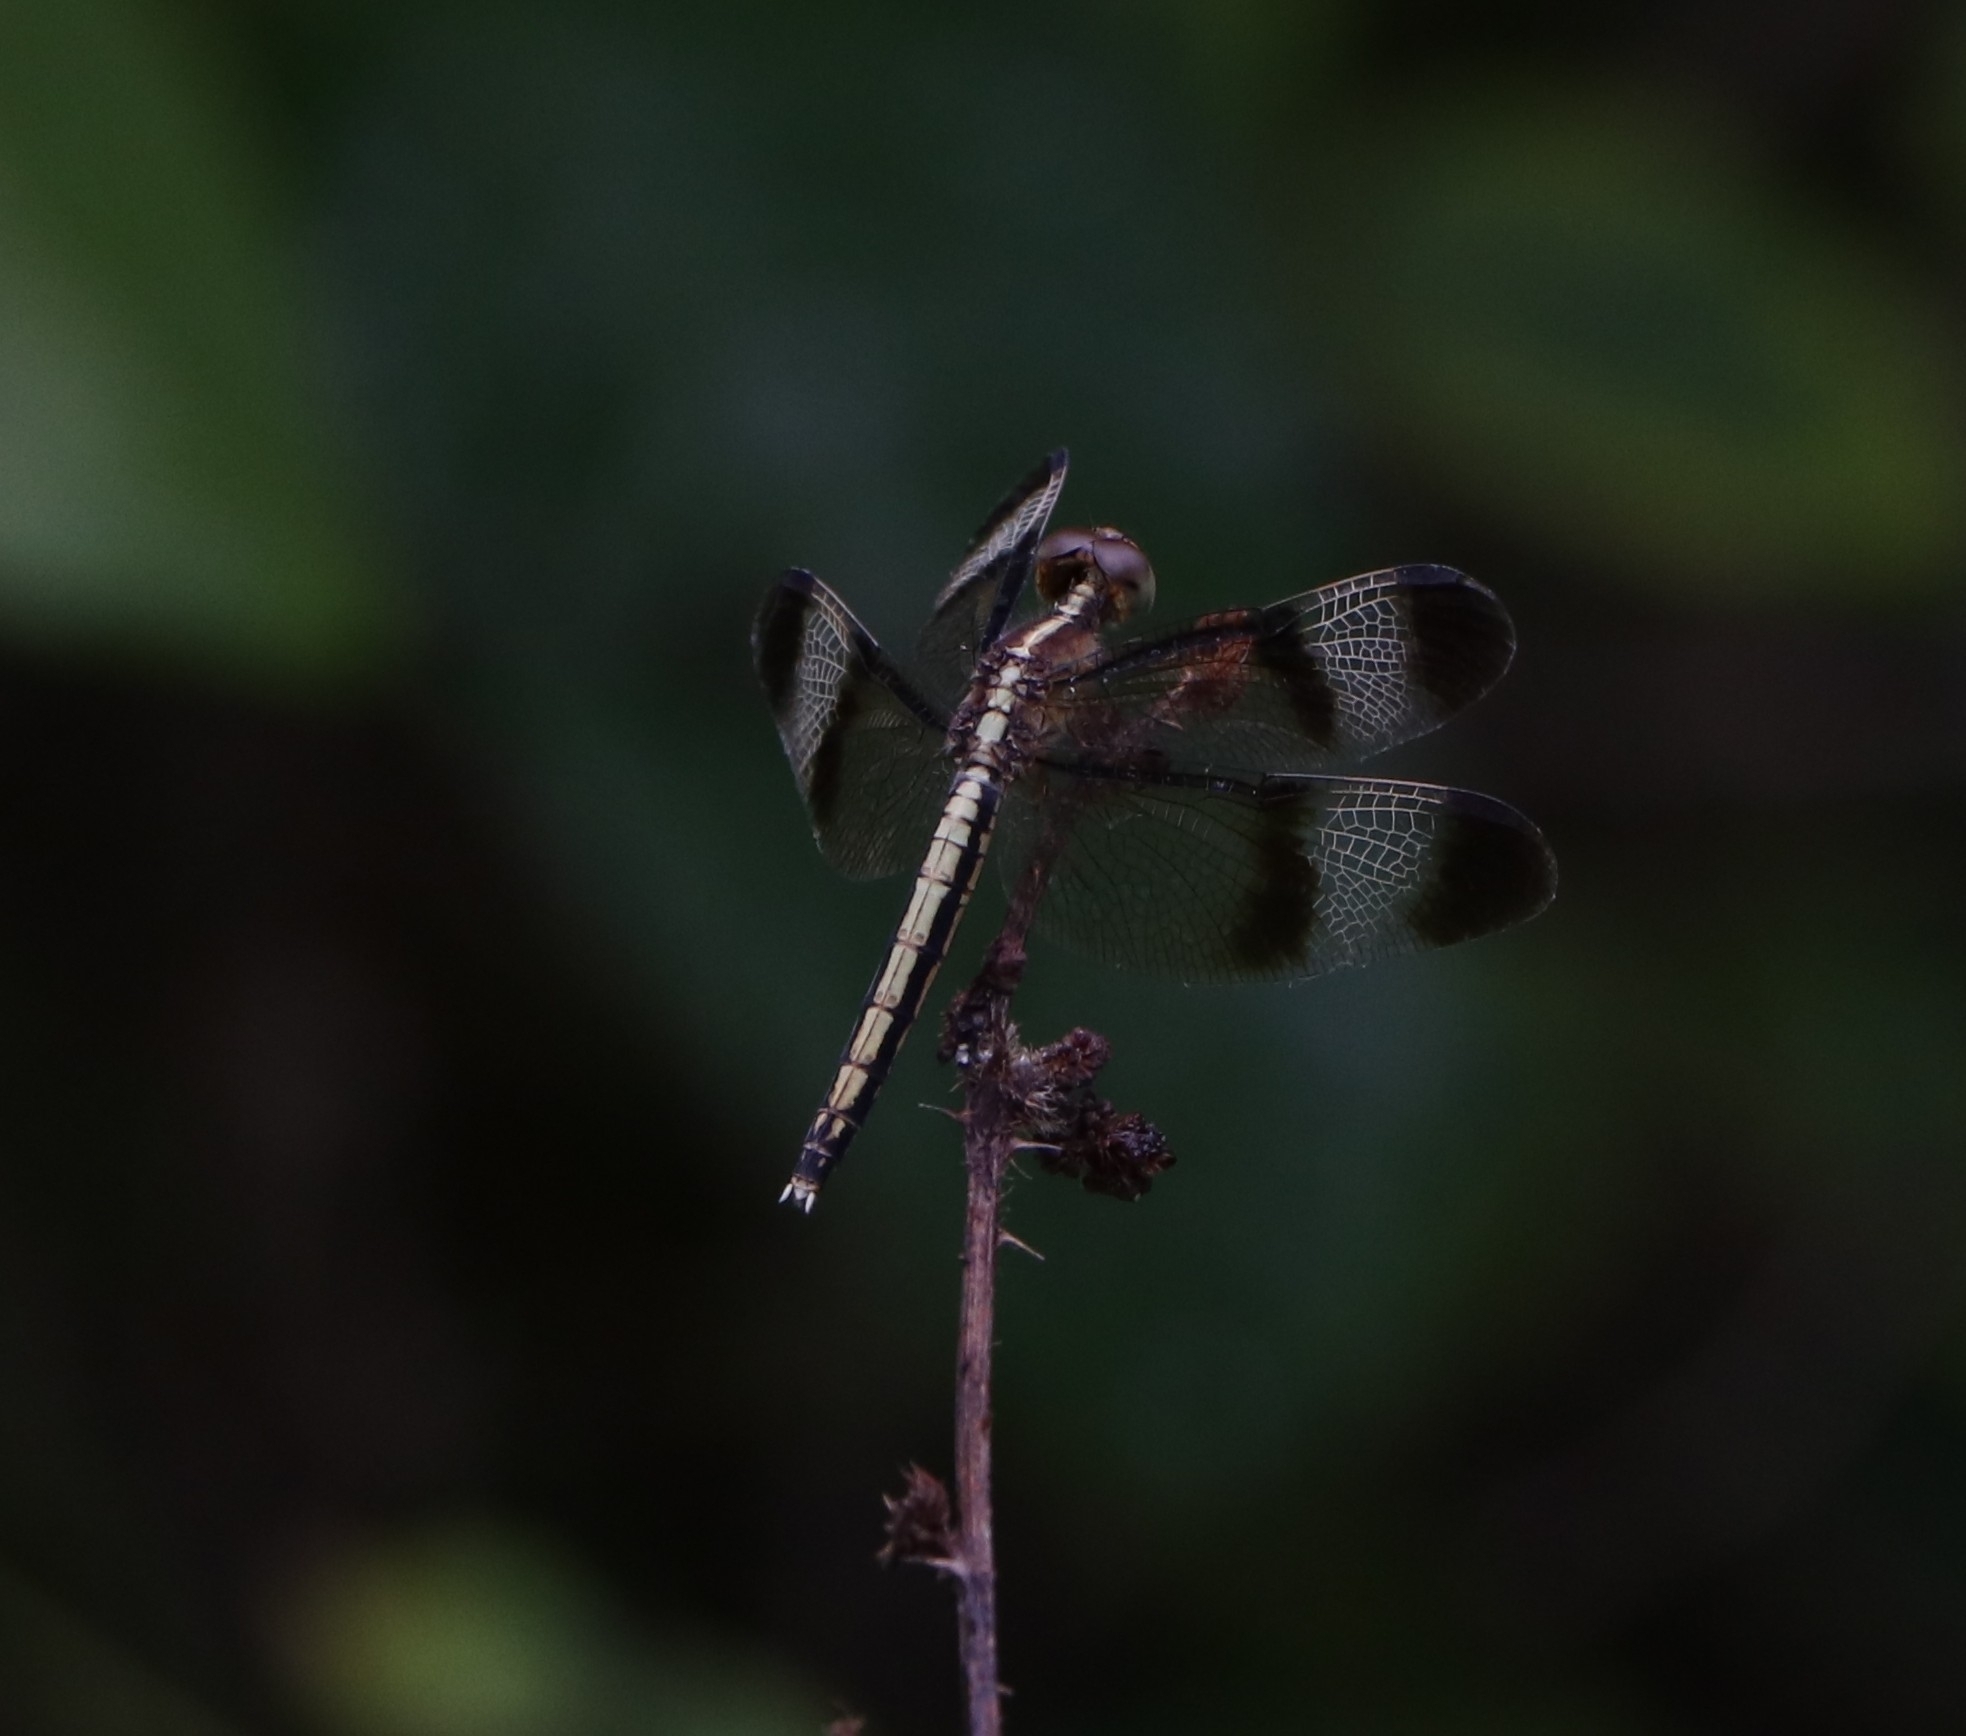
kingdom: Animalia
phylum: Arthropoda
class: Insecta
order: Odonata
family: Libellulidae
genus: Neurothemis
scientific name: Neurothemis tullia
